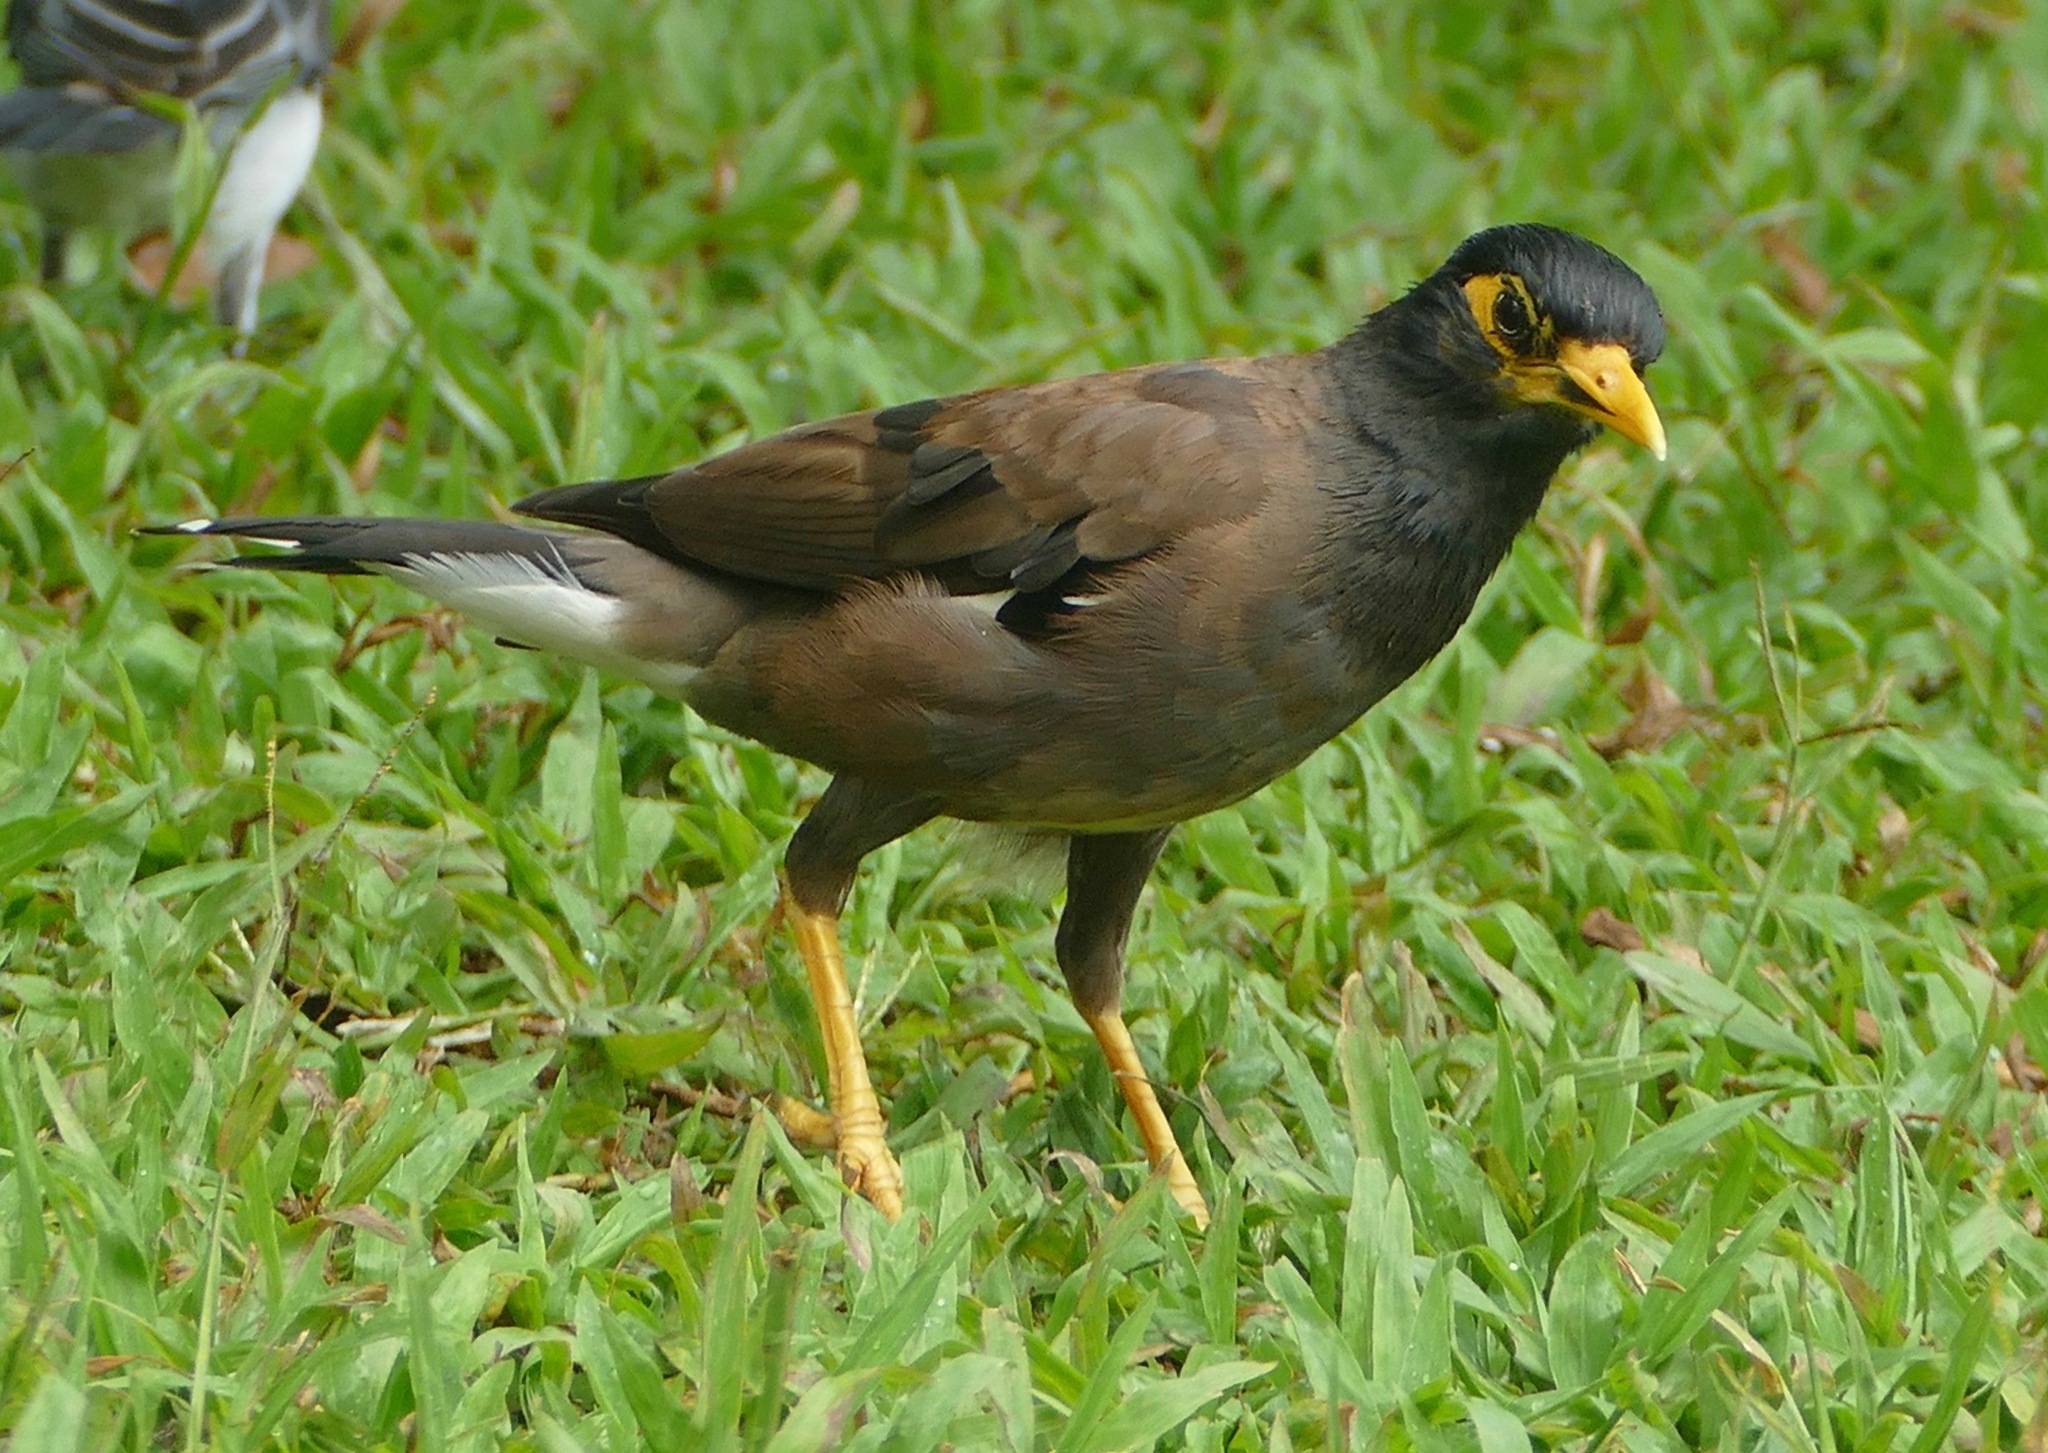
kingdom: Animalia
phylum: Chordata
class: Aves
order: Passeriformes
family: Sturnidae
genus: Acridotheres
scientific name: Acridotheres tristis
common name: Common myna
